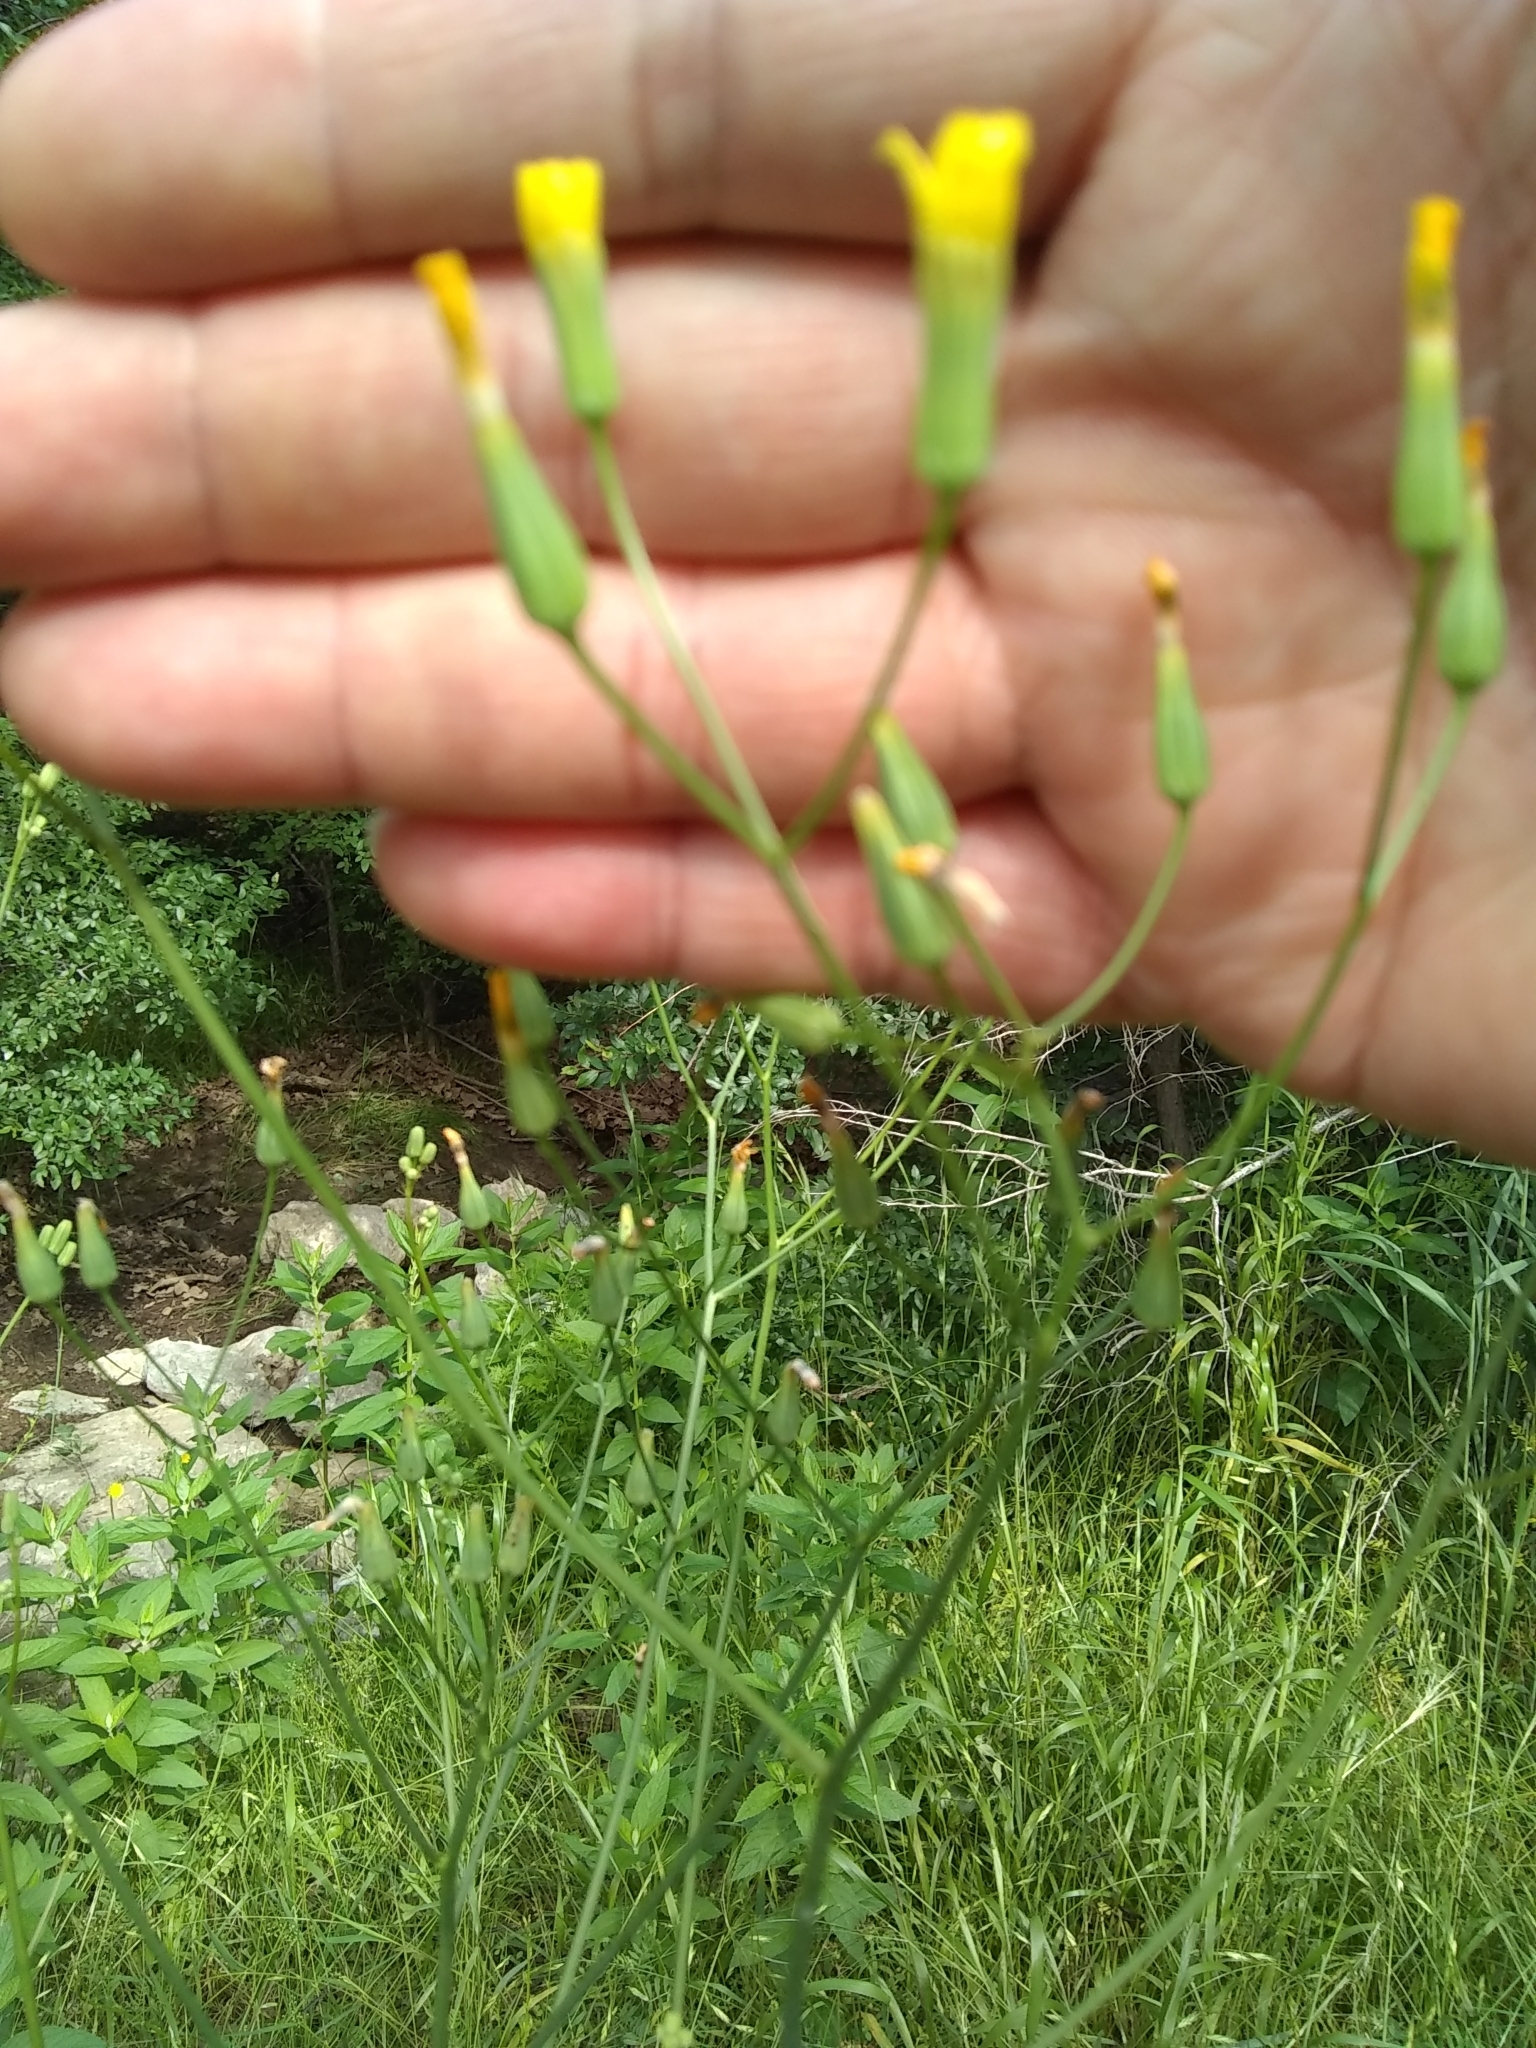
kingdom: Plantae
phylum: Tracheophyta
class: Magnoliopsida
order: Asterales
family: Asteraceae
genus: Senecio
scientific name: Senecio ampullaceus
